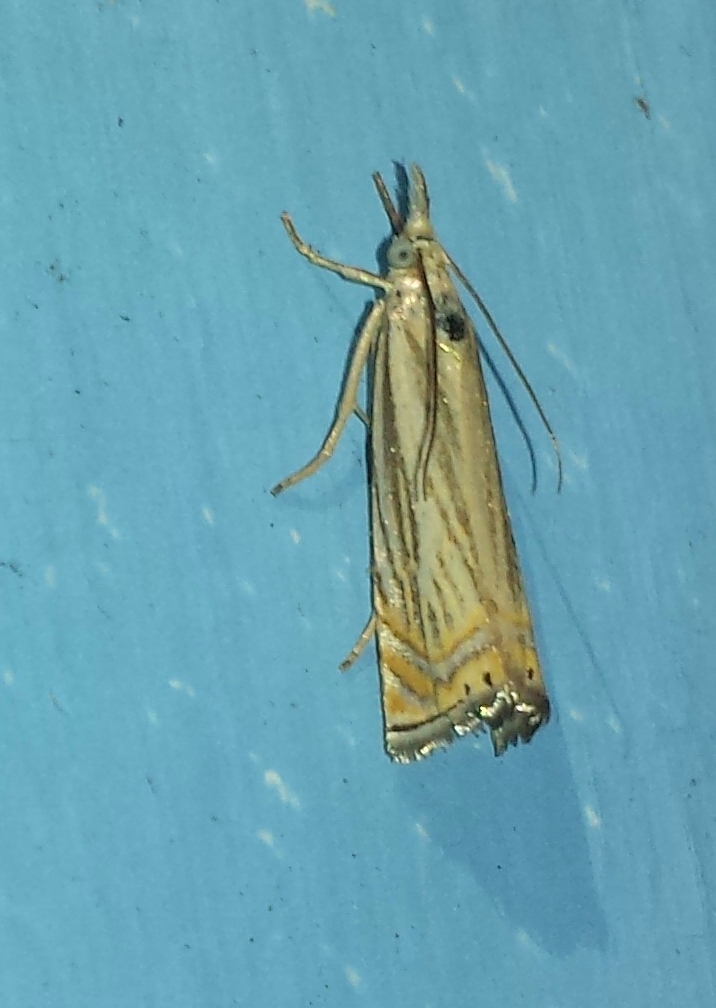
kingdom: Animalia
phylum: Arthropoda
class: Insecta
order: Lepidoptera
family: Crambidae
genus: Chrysoteuchia
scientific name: Chrysoteuchia topiarius
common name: Topiary grass-veneer
